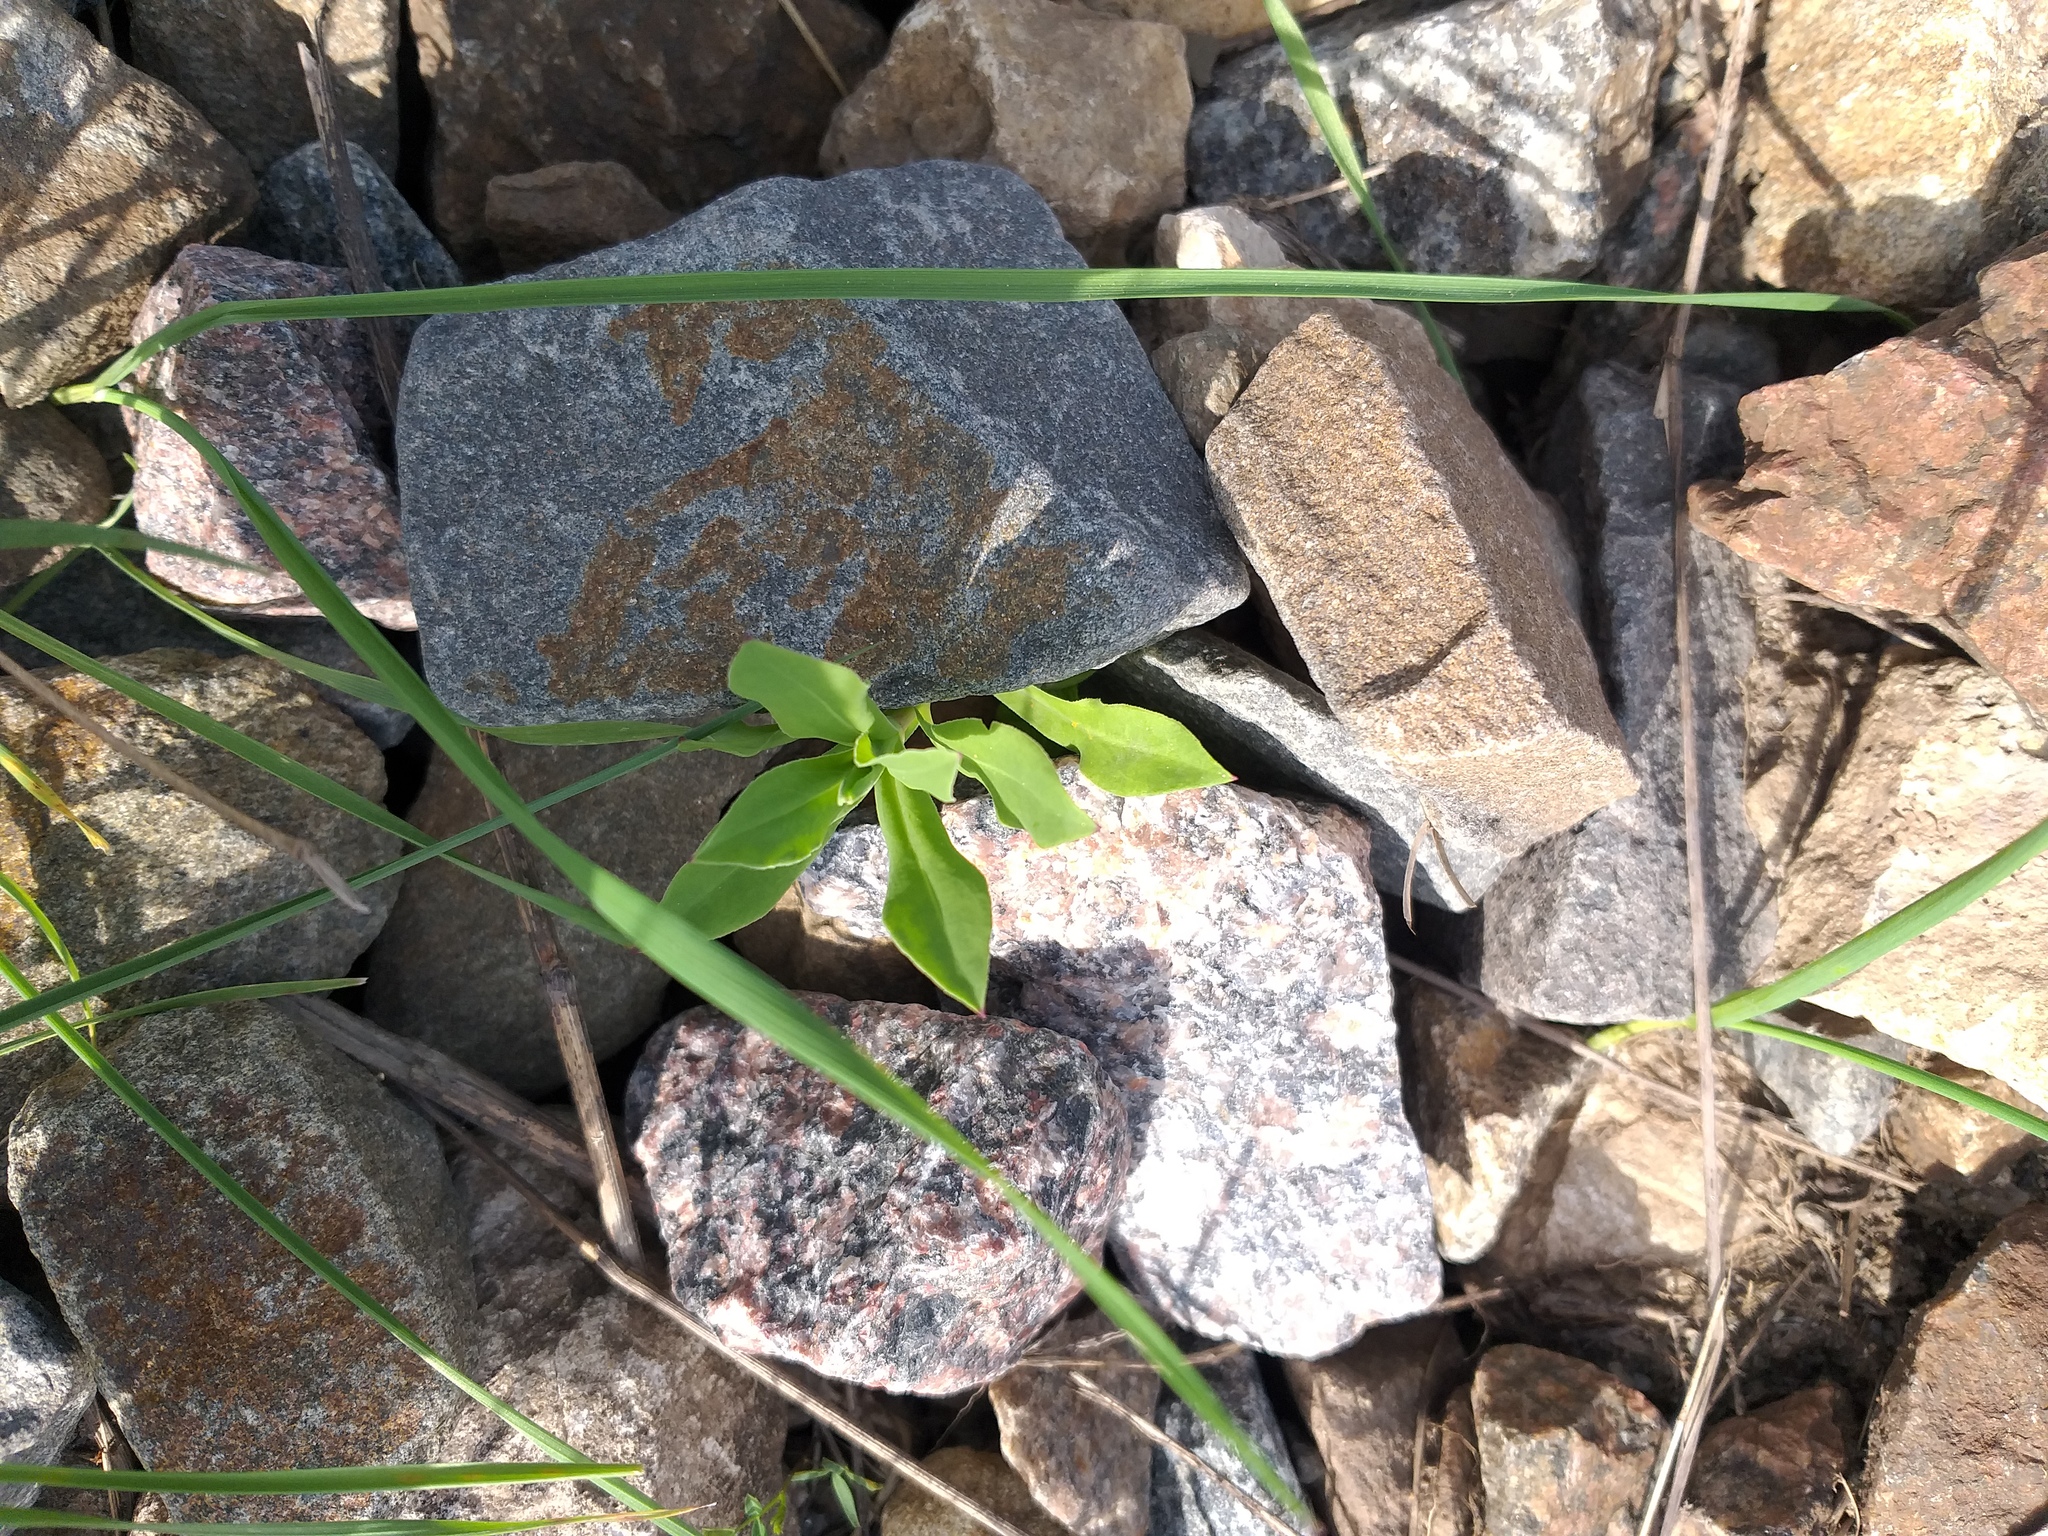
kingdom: Plantae
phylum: Tracheophyta
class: Magnoliopsida
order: Caryophyllales
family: Caryophyllaceae
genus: Silene
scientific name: Silene vulgaris
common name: Bladder campion
